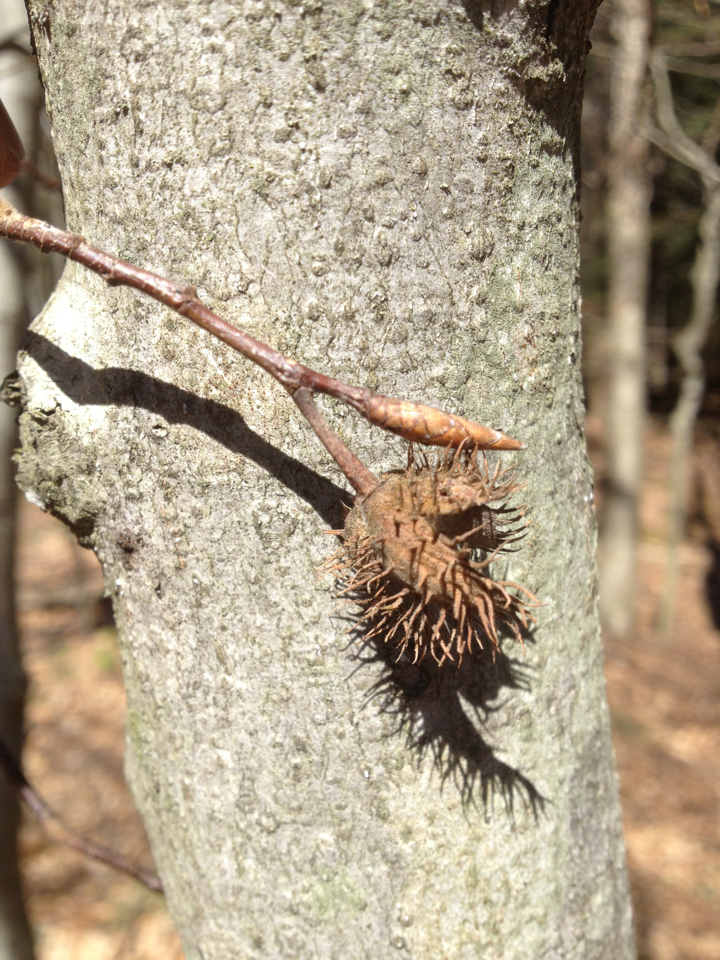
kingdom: Plantae
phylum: Tracheophyta
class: Magnoliopsida
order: Fagales
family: Fagaceae
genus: Fagus
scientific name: Fagus grandifolia
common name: American beech
